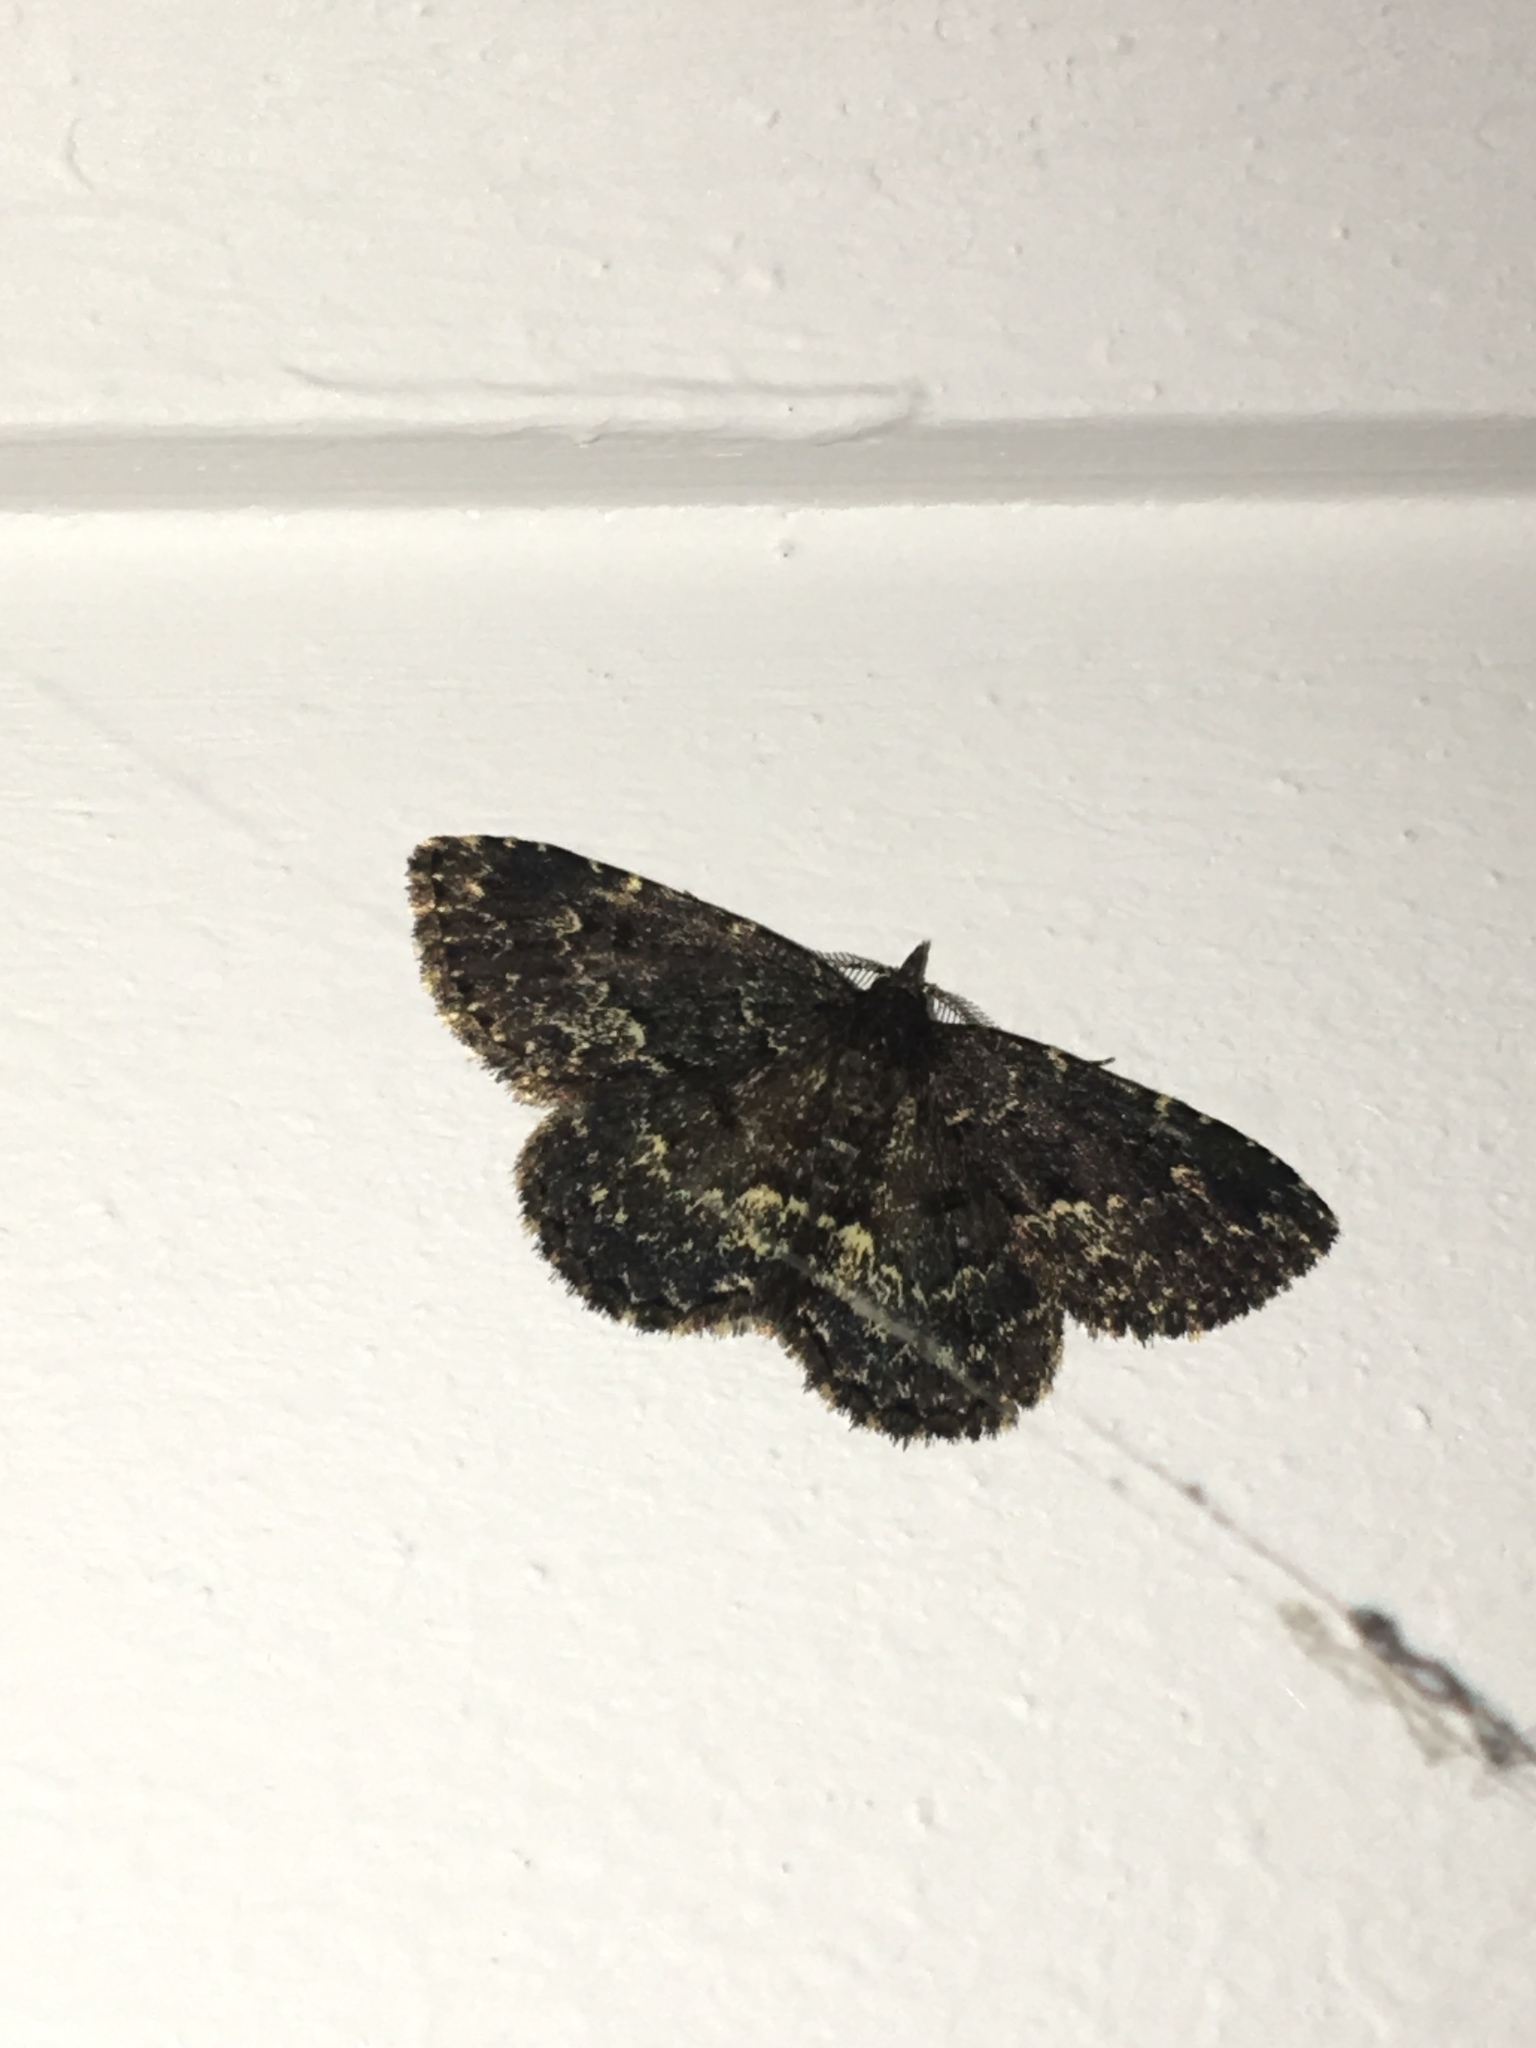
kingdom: Animalia
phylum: Arthropoda
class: Insecta
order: Lepidoptera
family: Erebidae
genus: Parascotia
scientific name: Parascotia fuliginaria
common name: Waved black
